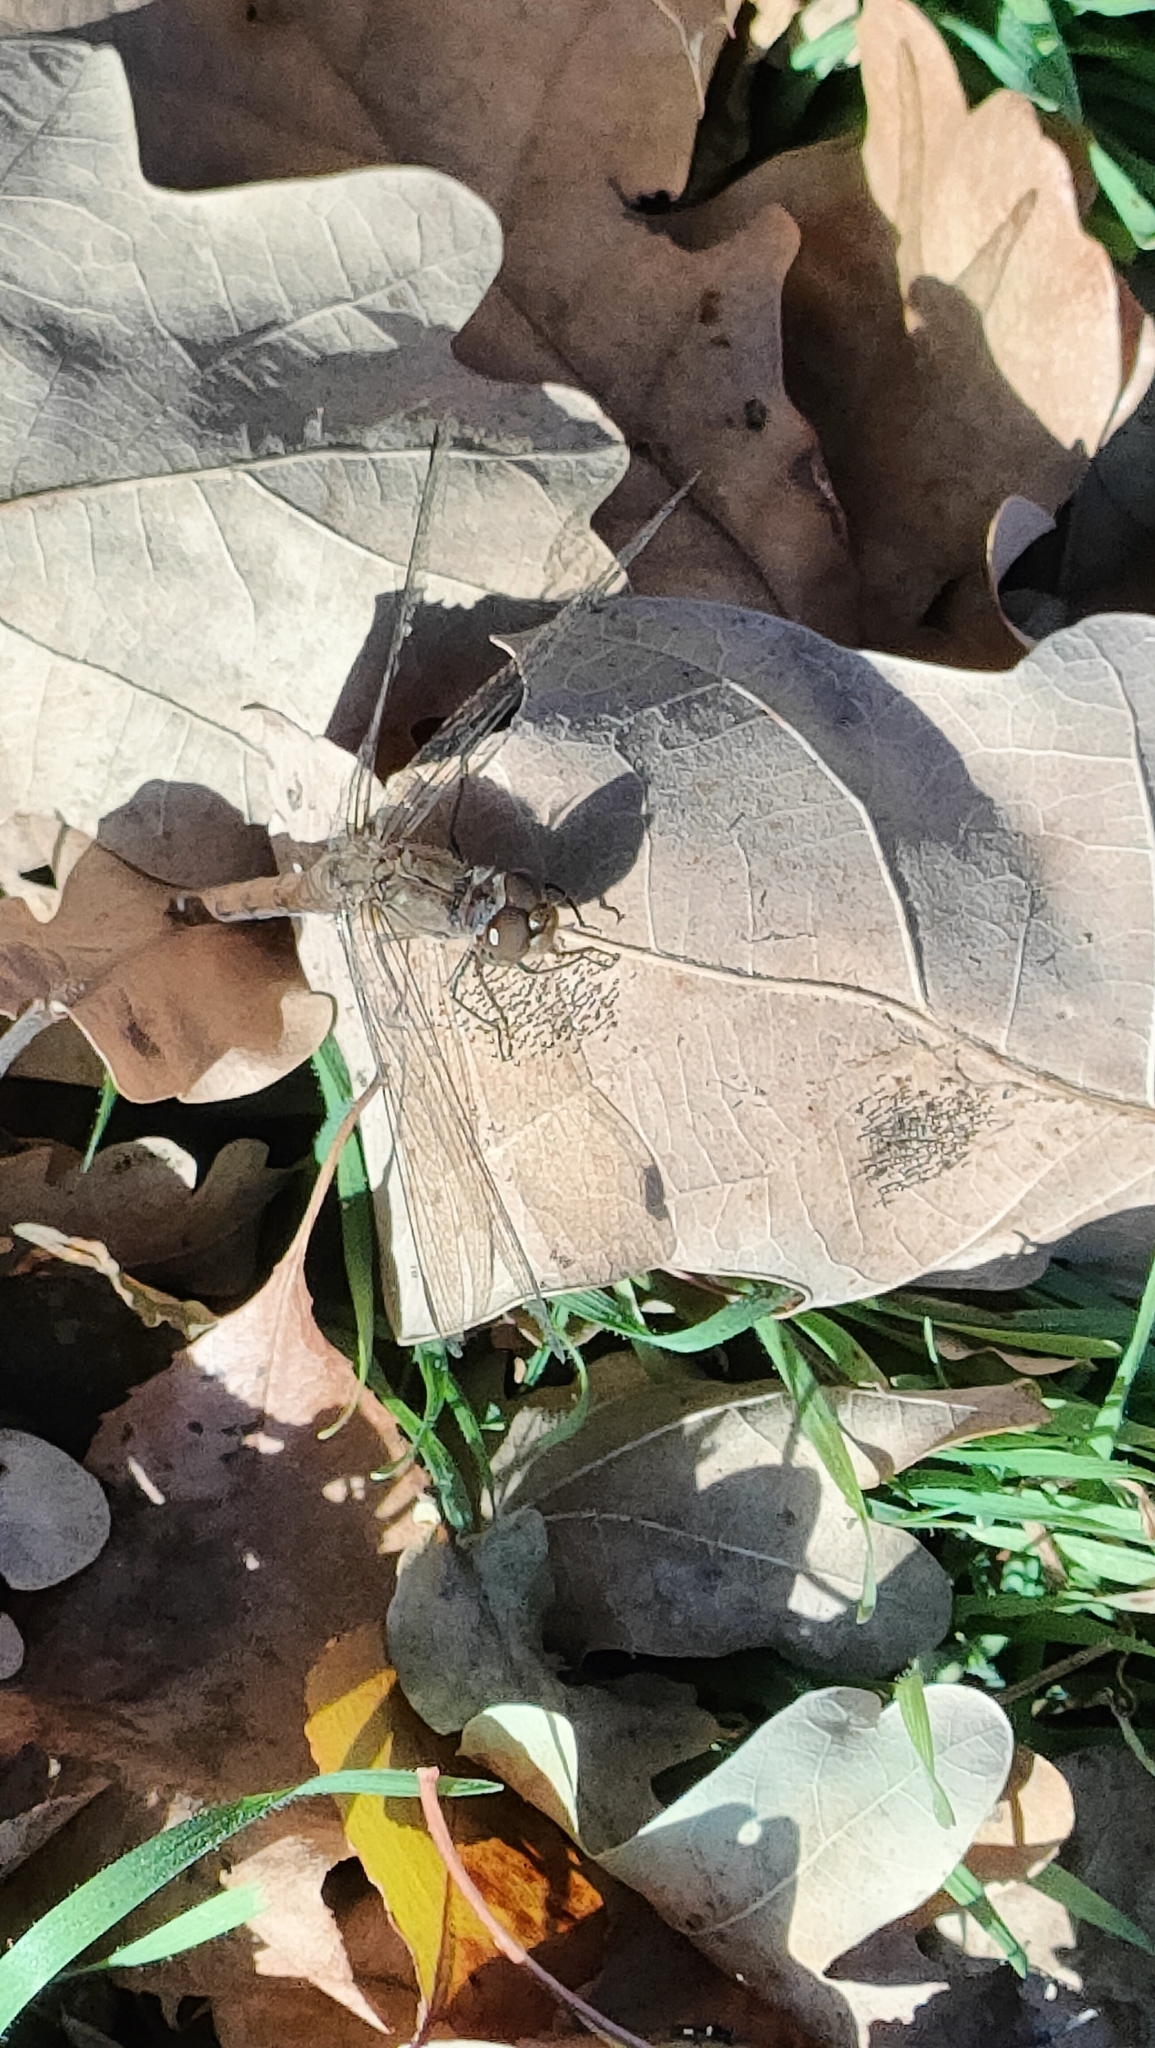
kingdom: Animalia
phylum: Arthropoda
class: Insecta
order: Odonata
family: Libellulidae
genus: Sympetrum
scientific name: Sympetrum striolatum
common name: Common darter
